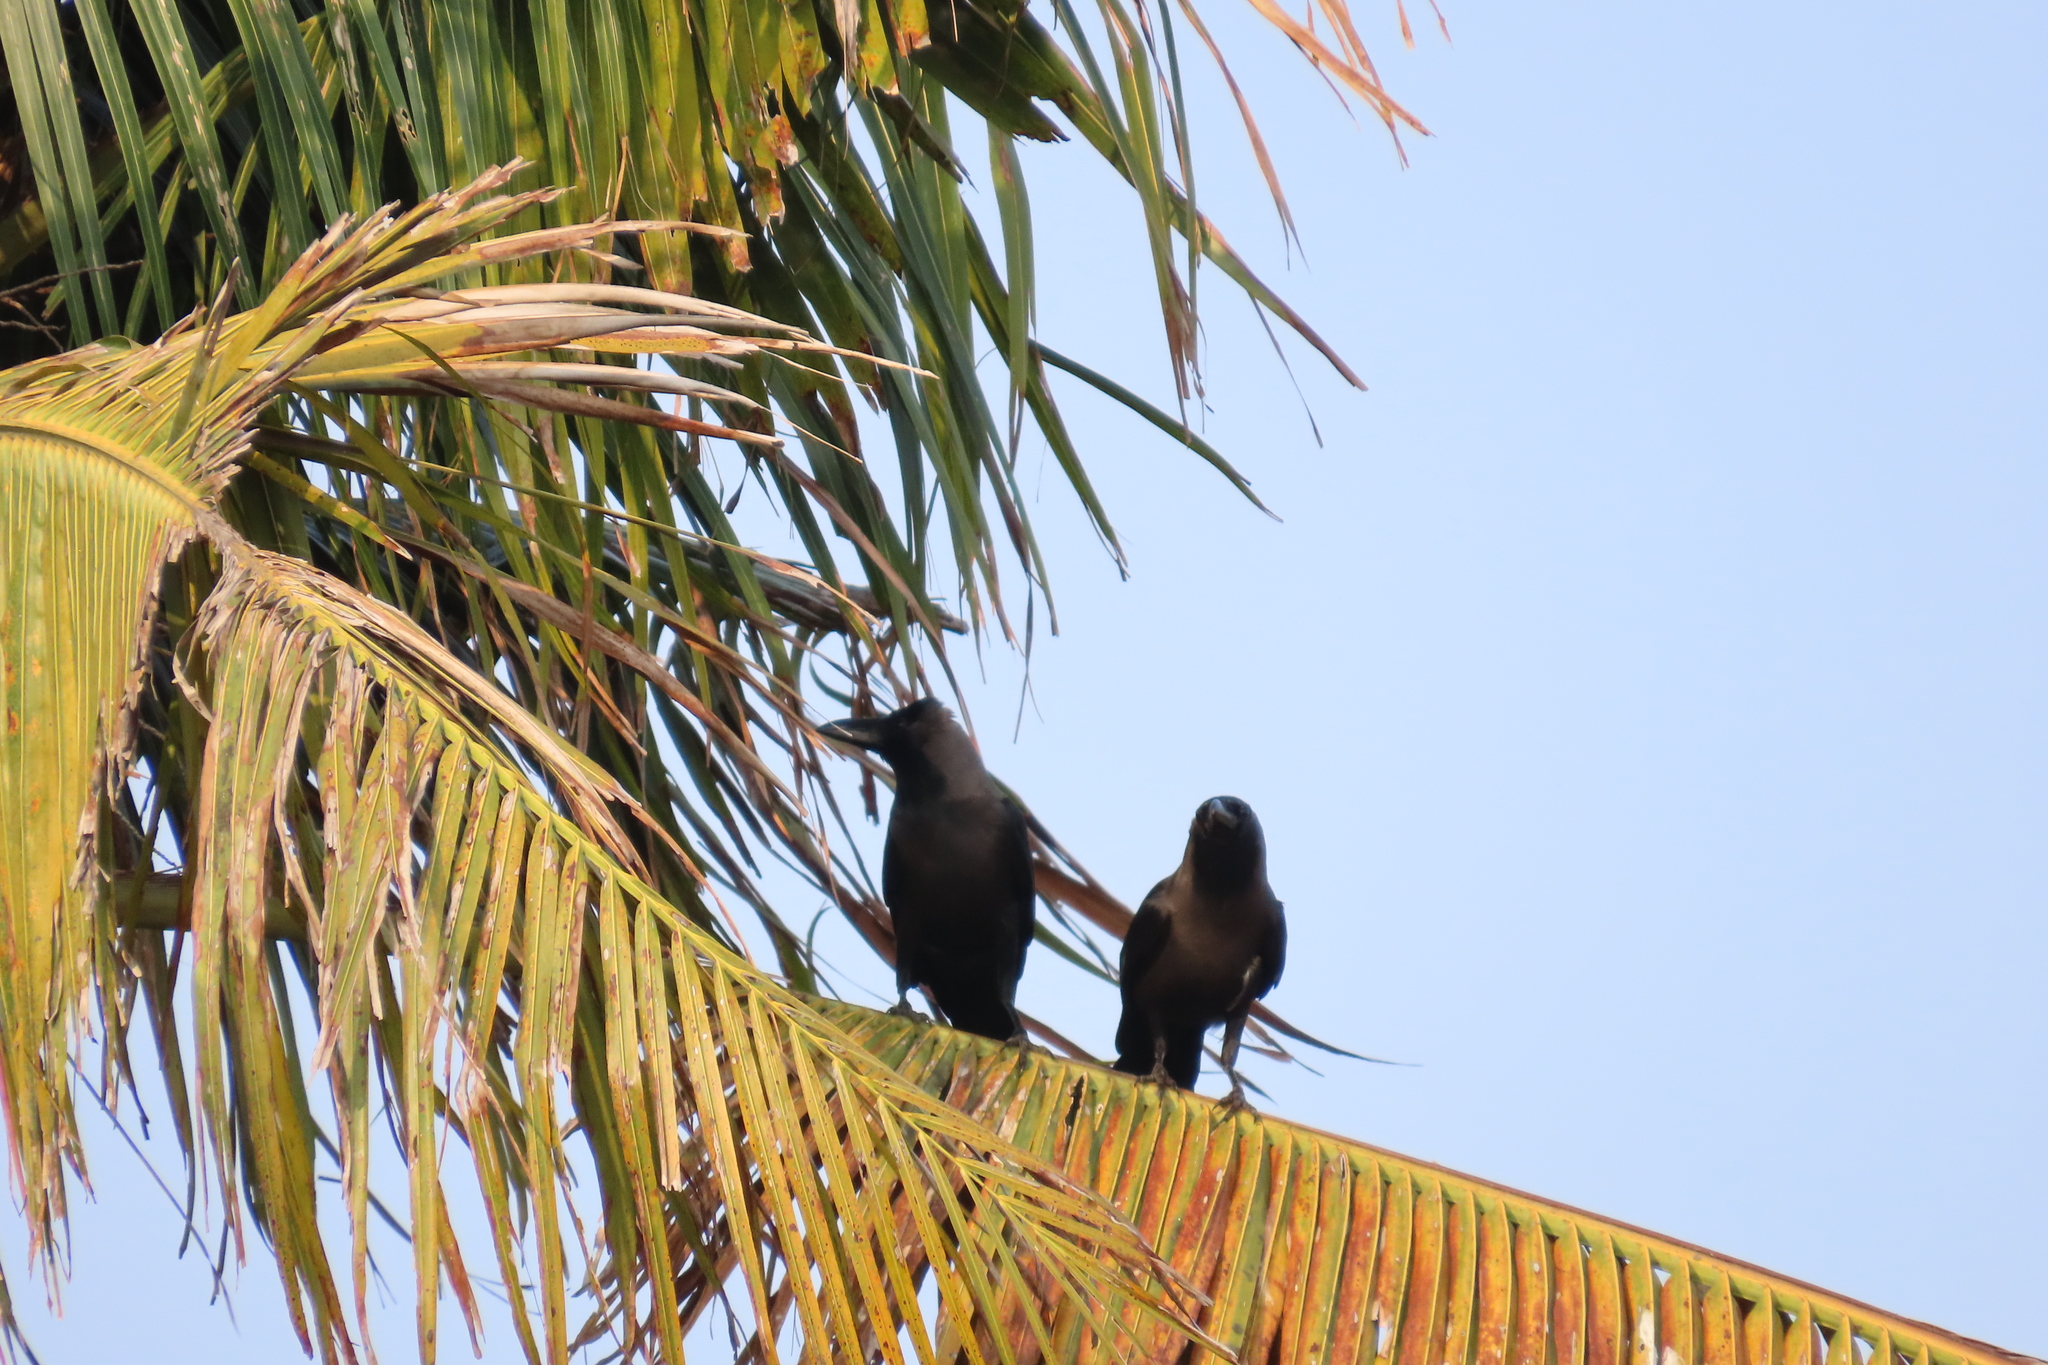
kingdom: Animalia
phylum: Chordata
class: Aves
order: Passeriformes
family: Corvidae
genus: Corvus
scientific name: Corvus splendens
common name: House crow
